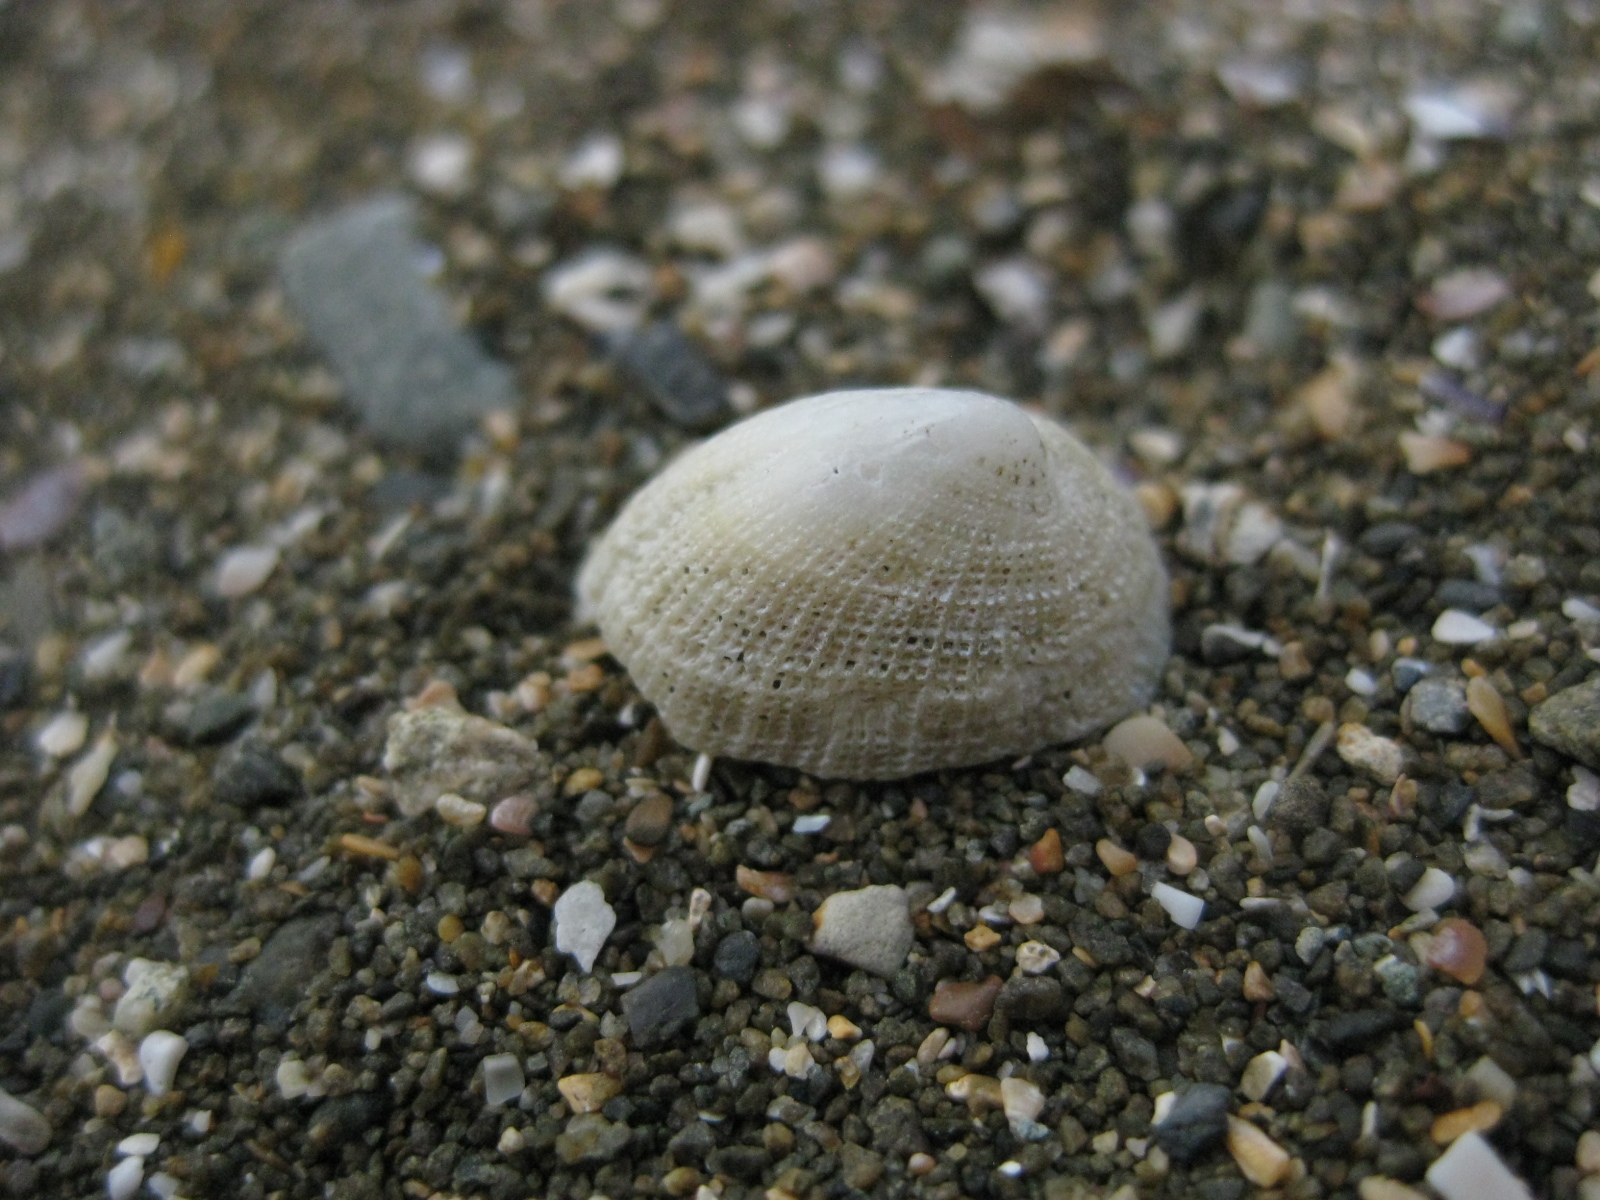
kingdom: Animalia
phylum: Mollusca
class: Gastropoda
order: Lepetellida
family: Fissurellidae
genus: Emarginula
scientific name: Emarginula striatula
